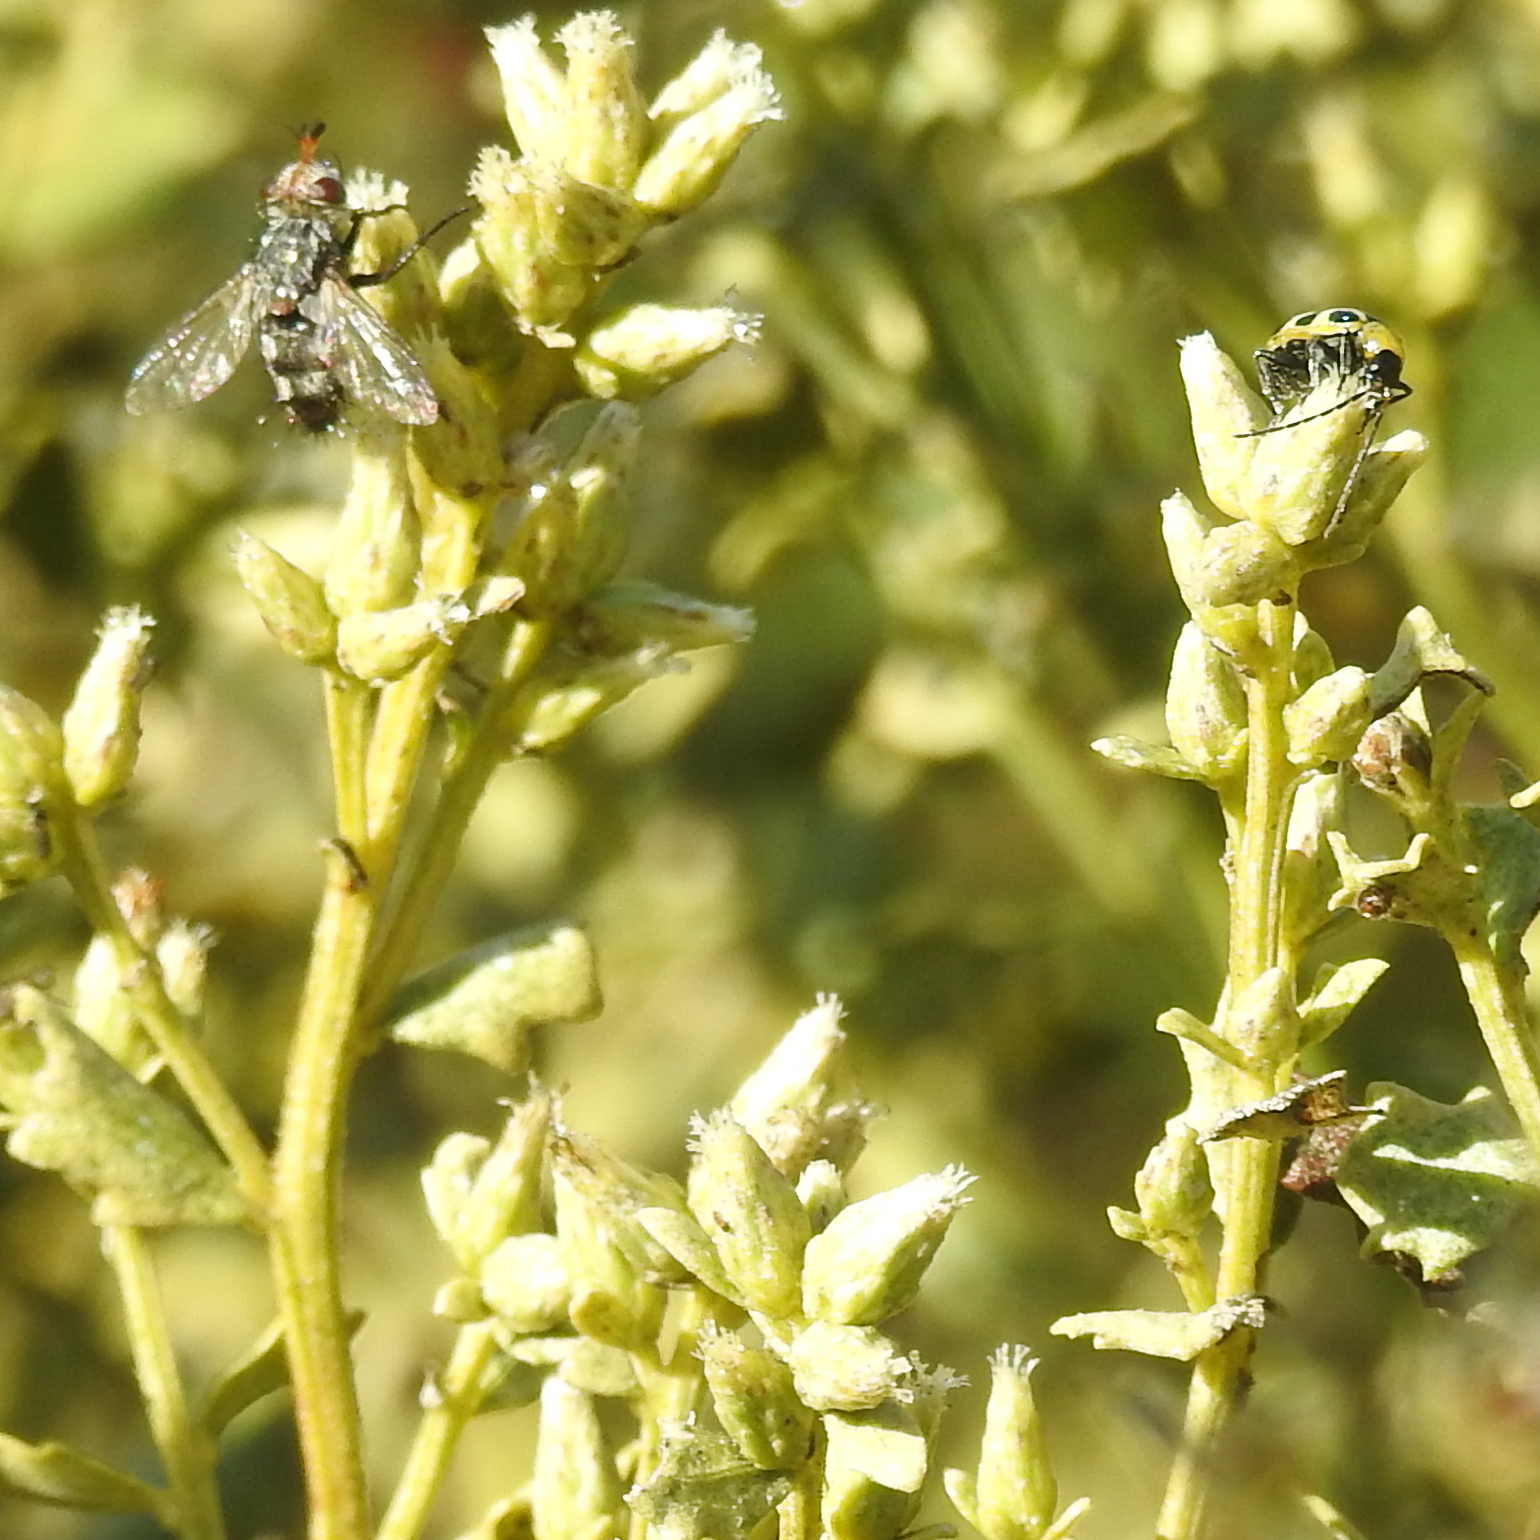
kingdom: Plantae
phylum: Tracheophyta
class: Magnoliopsida
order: Asterales
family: Asteraceae
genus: Baccharis
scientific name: Baccharis pilularis
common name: Coyotebrush
